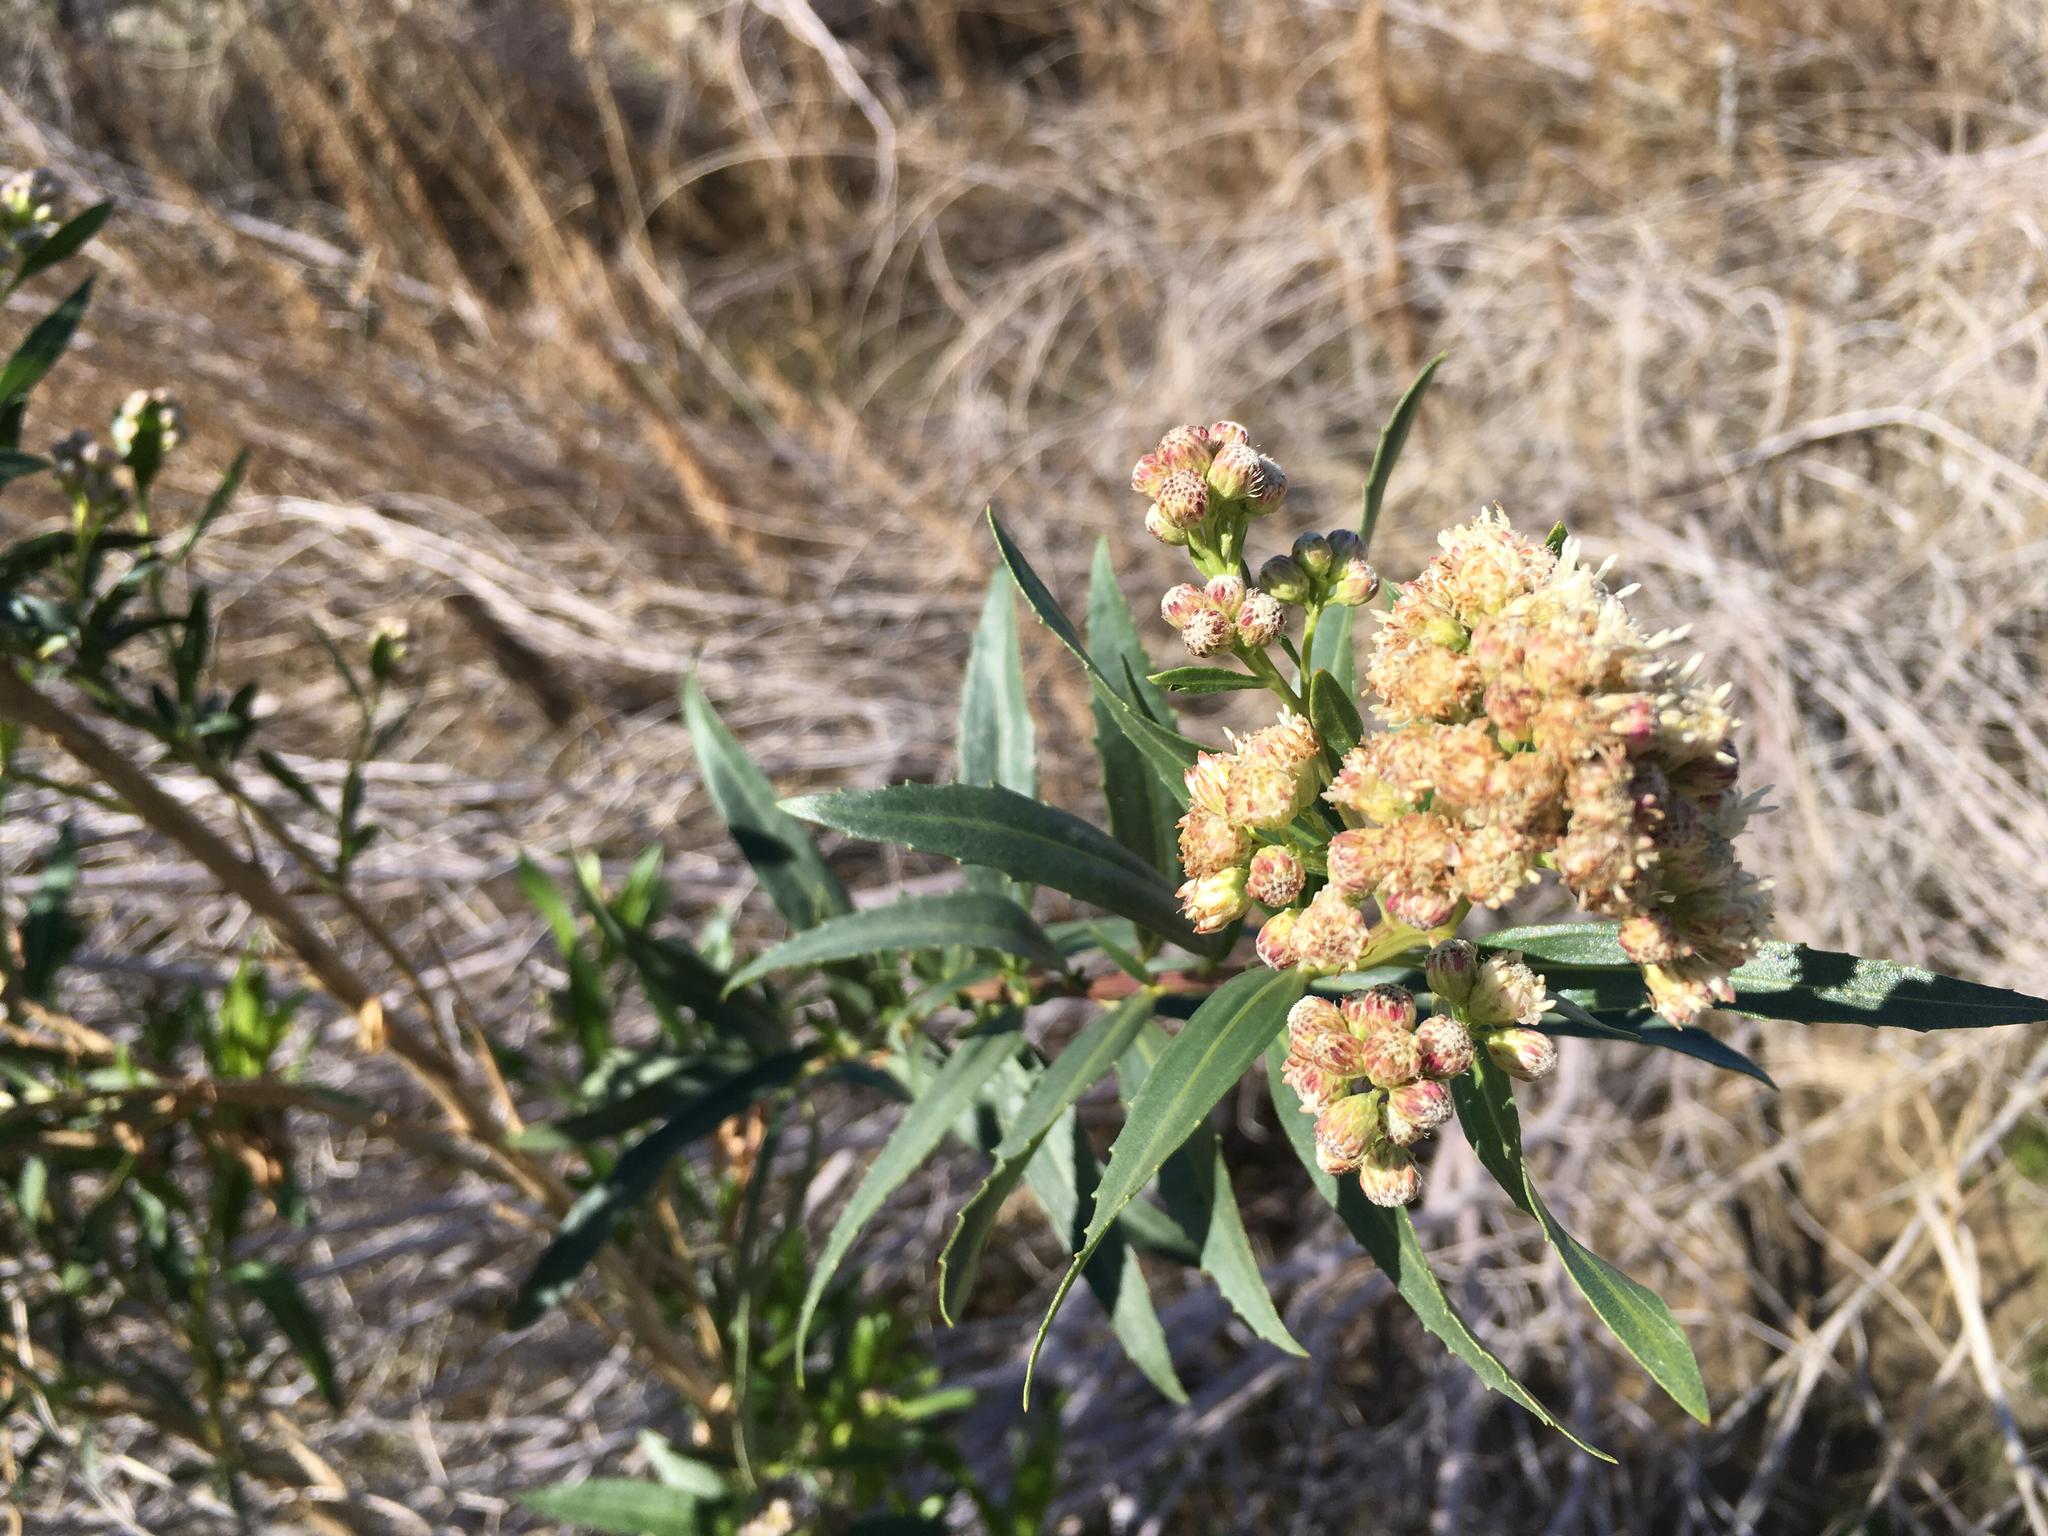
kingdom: Plantae
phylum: Tracheophyta
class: Magnoliopsida
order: Asterales
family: Asteraceae
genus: Baccharis
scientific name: Baccharis salicifolia
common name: Sticky baccharis
